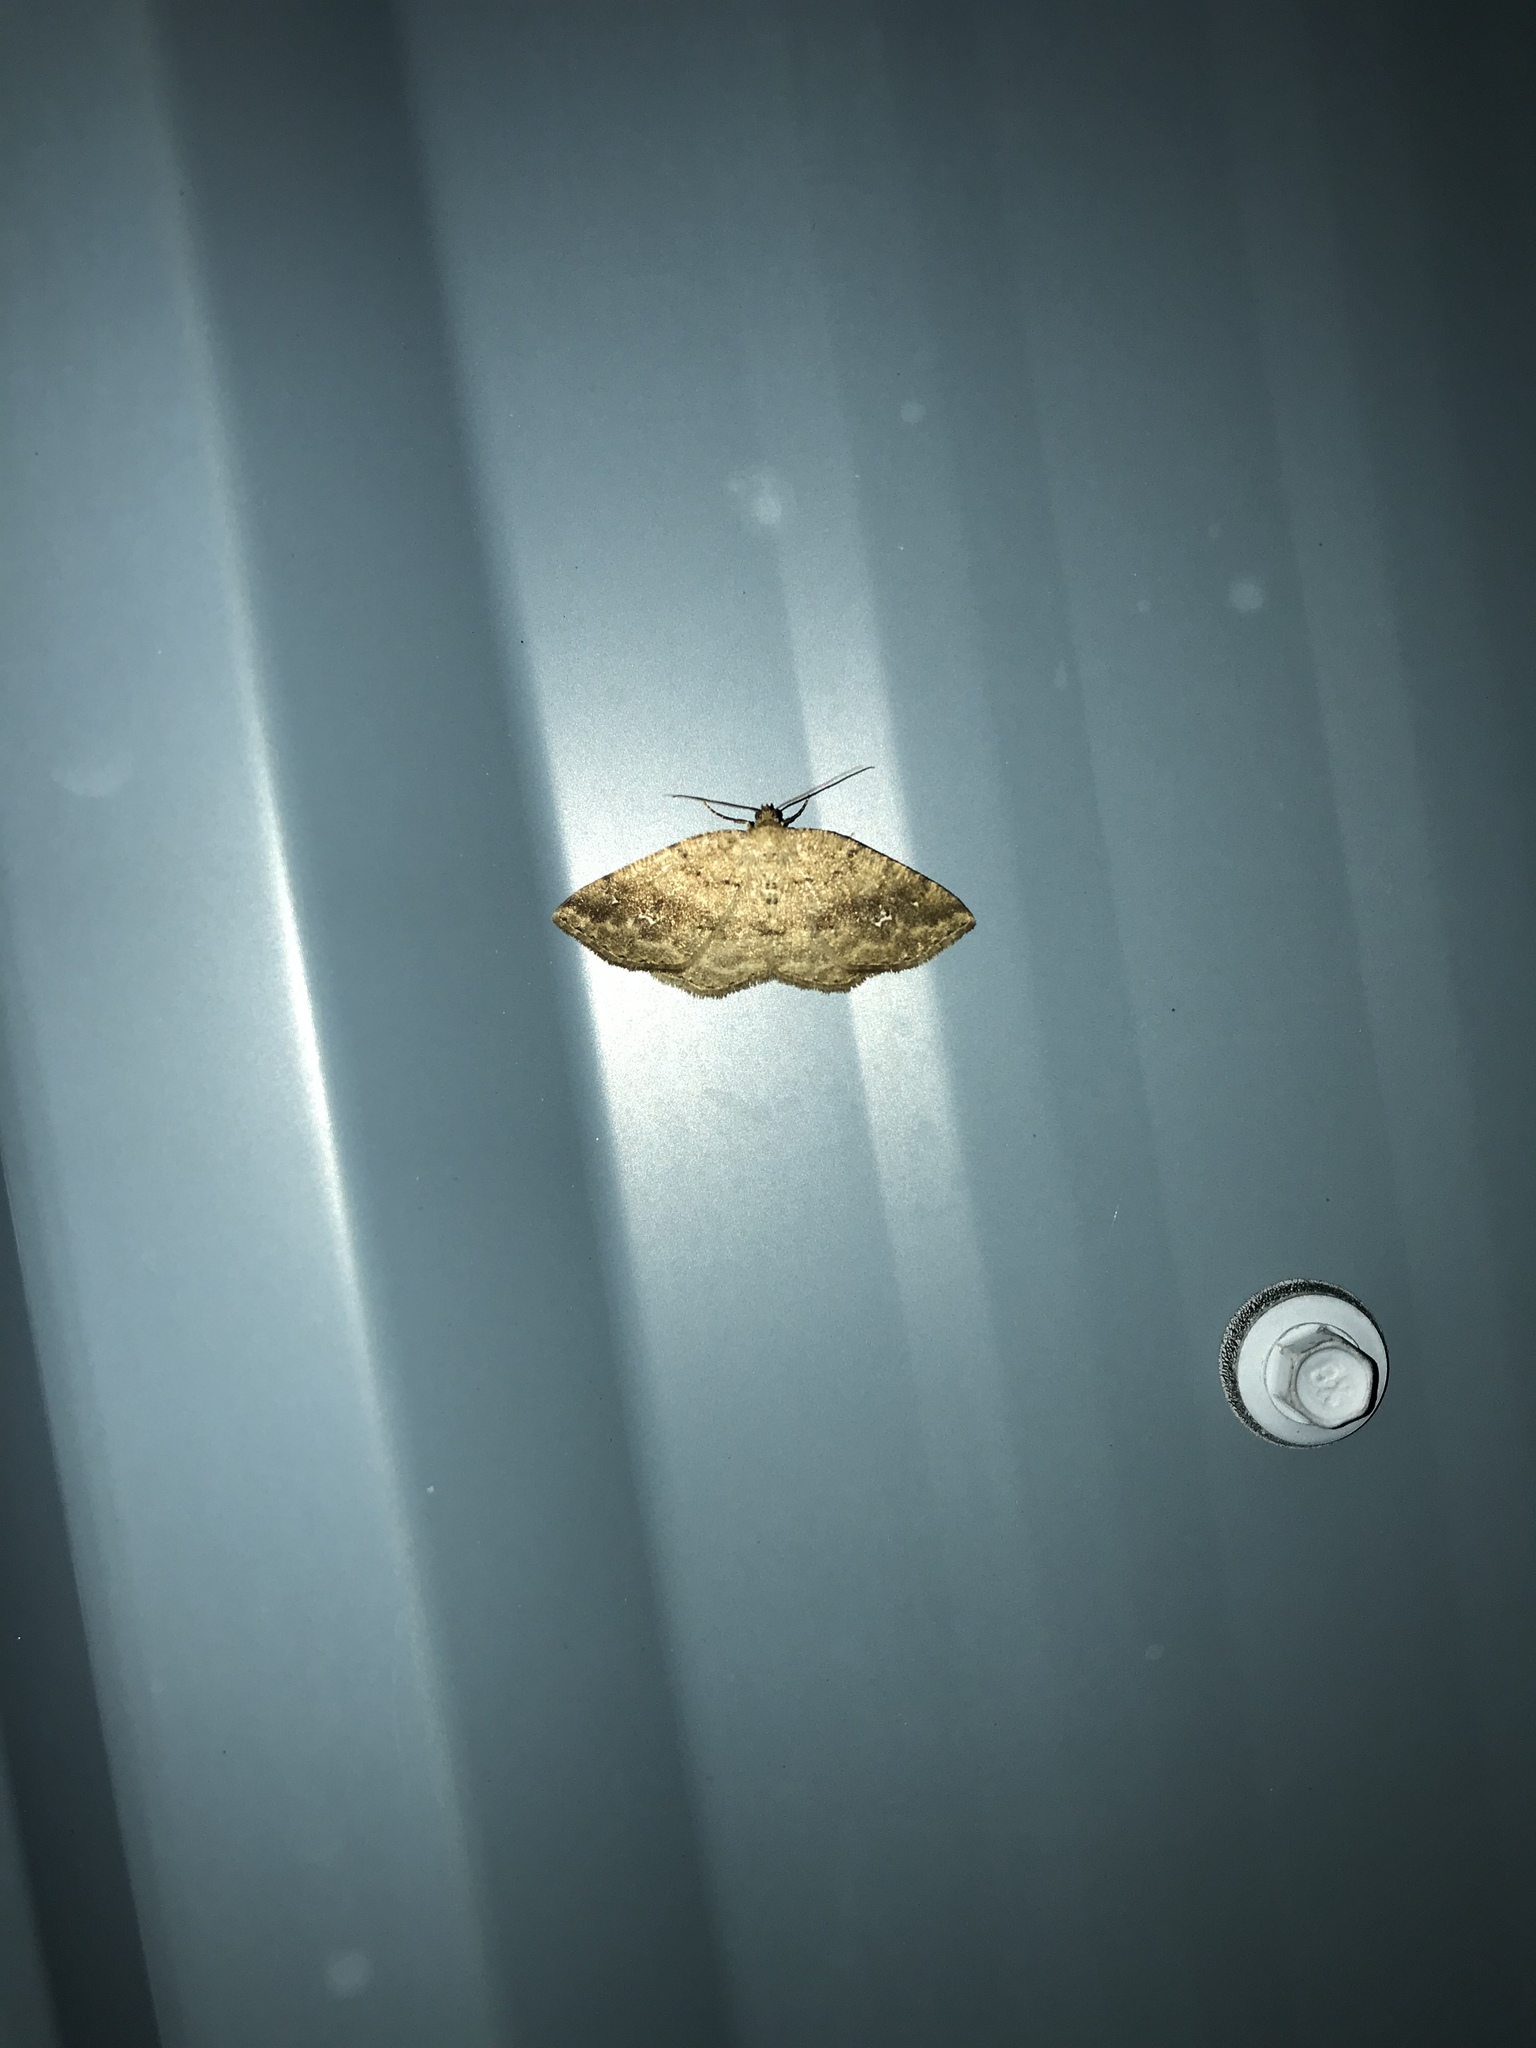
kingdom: Animalia
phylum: Arthropoda
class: Insecta
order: Lepidoptera
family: Geometridae
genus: Homochlodes
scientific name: Homochlodes fritillaria
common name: Pale homochlodes
